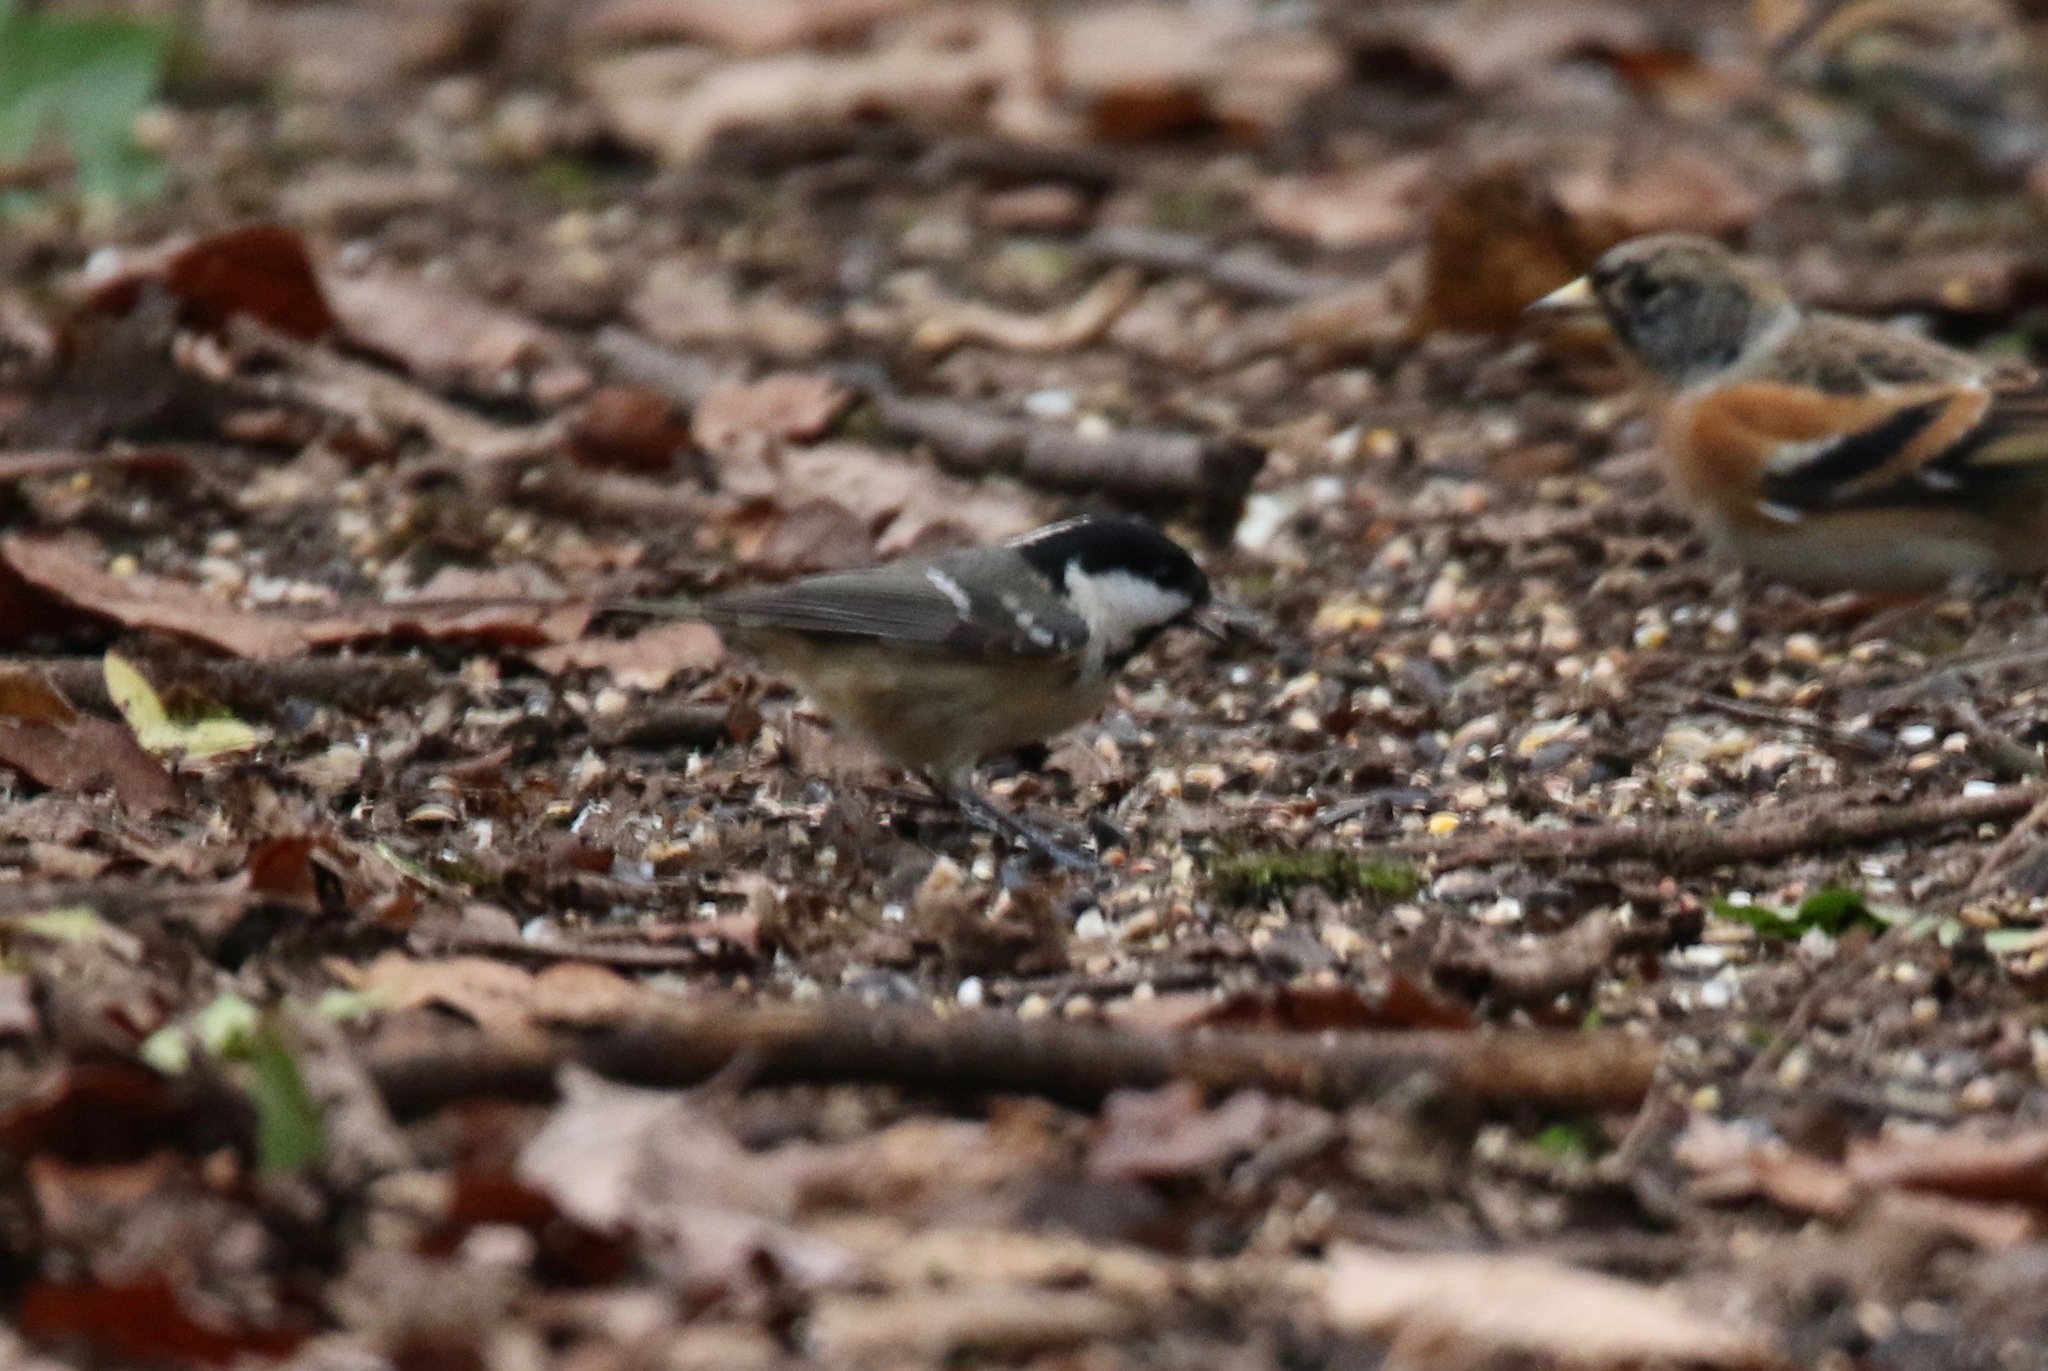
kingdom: Animalia
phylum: Chordata
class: Aves
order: Passeriformes
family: Paridae
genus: Periparus
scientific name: Periparus ater
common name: Coal tit
